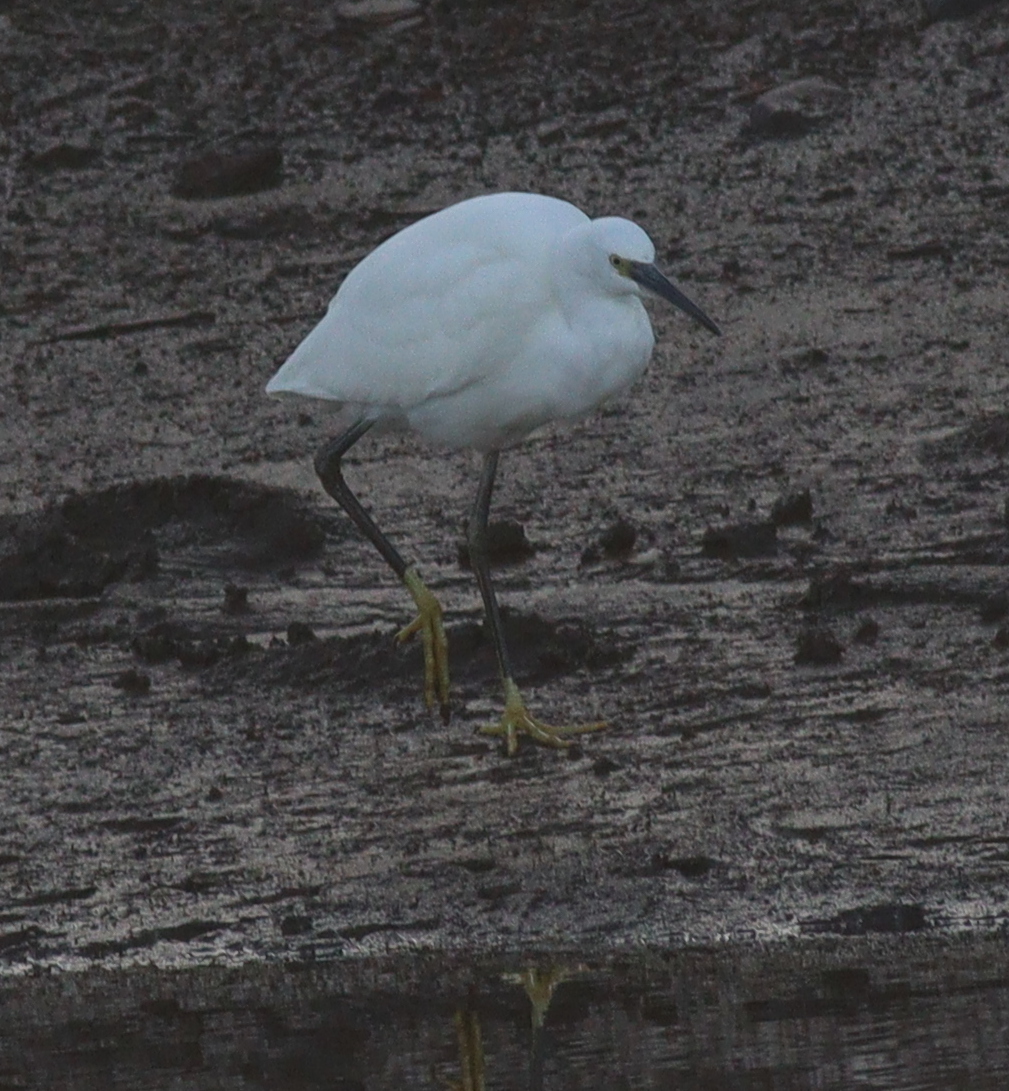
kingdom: Animalia
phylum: Chordata
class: Aves
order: Pelecaniformes
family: Ardeidae
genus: Egretta
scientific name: Egretta garzetta
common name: Little egret
